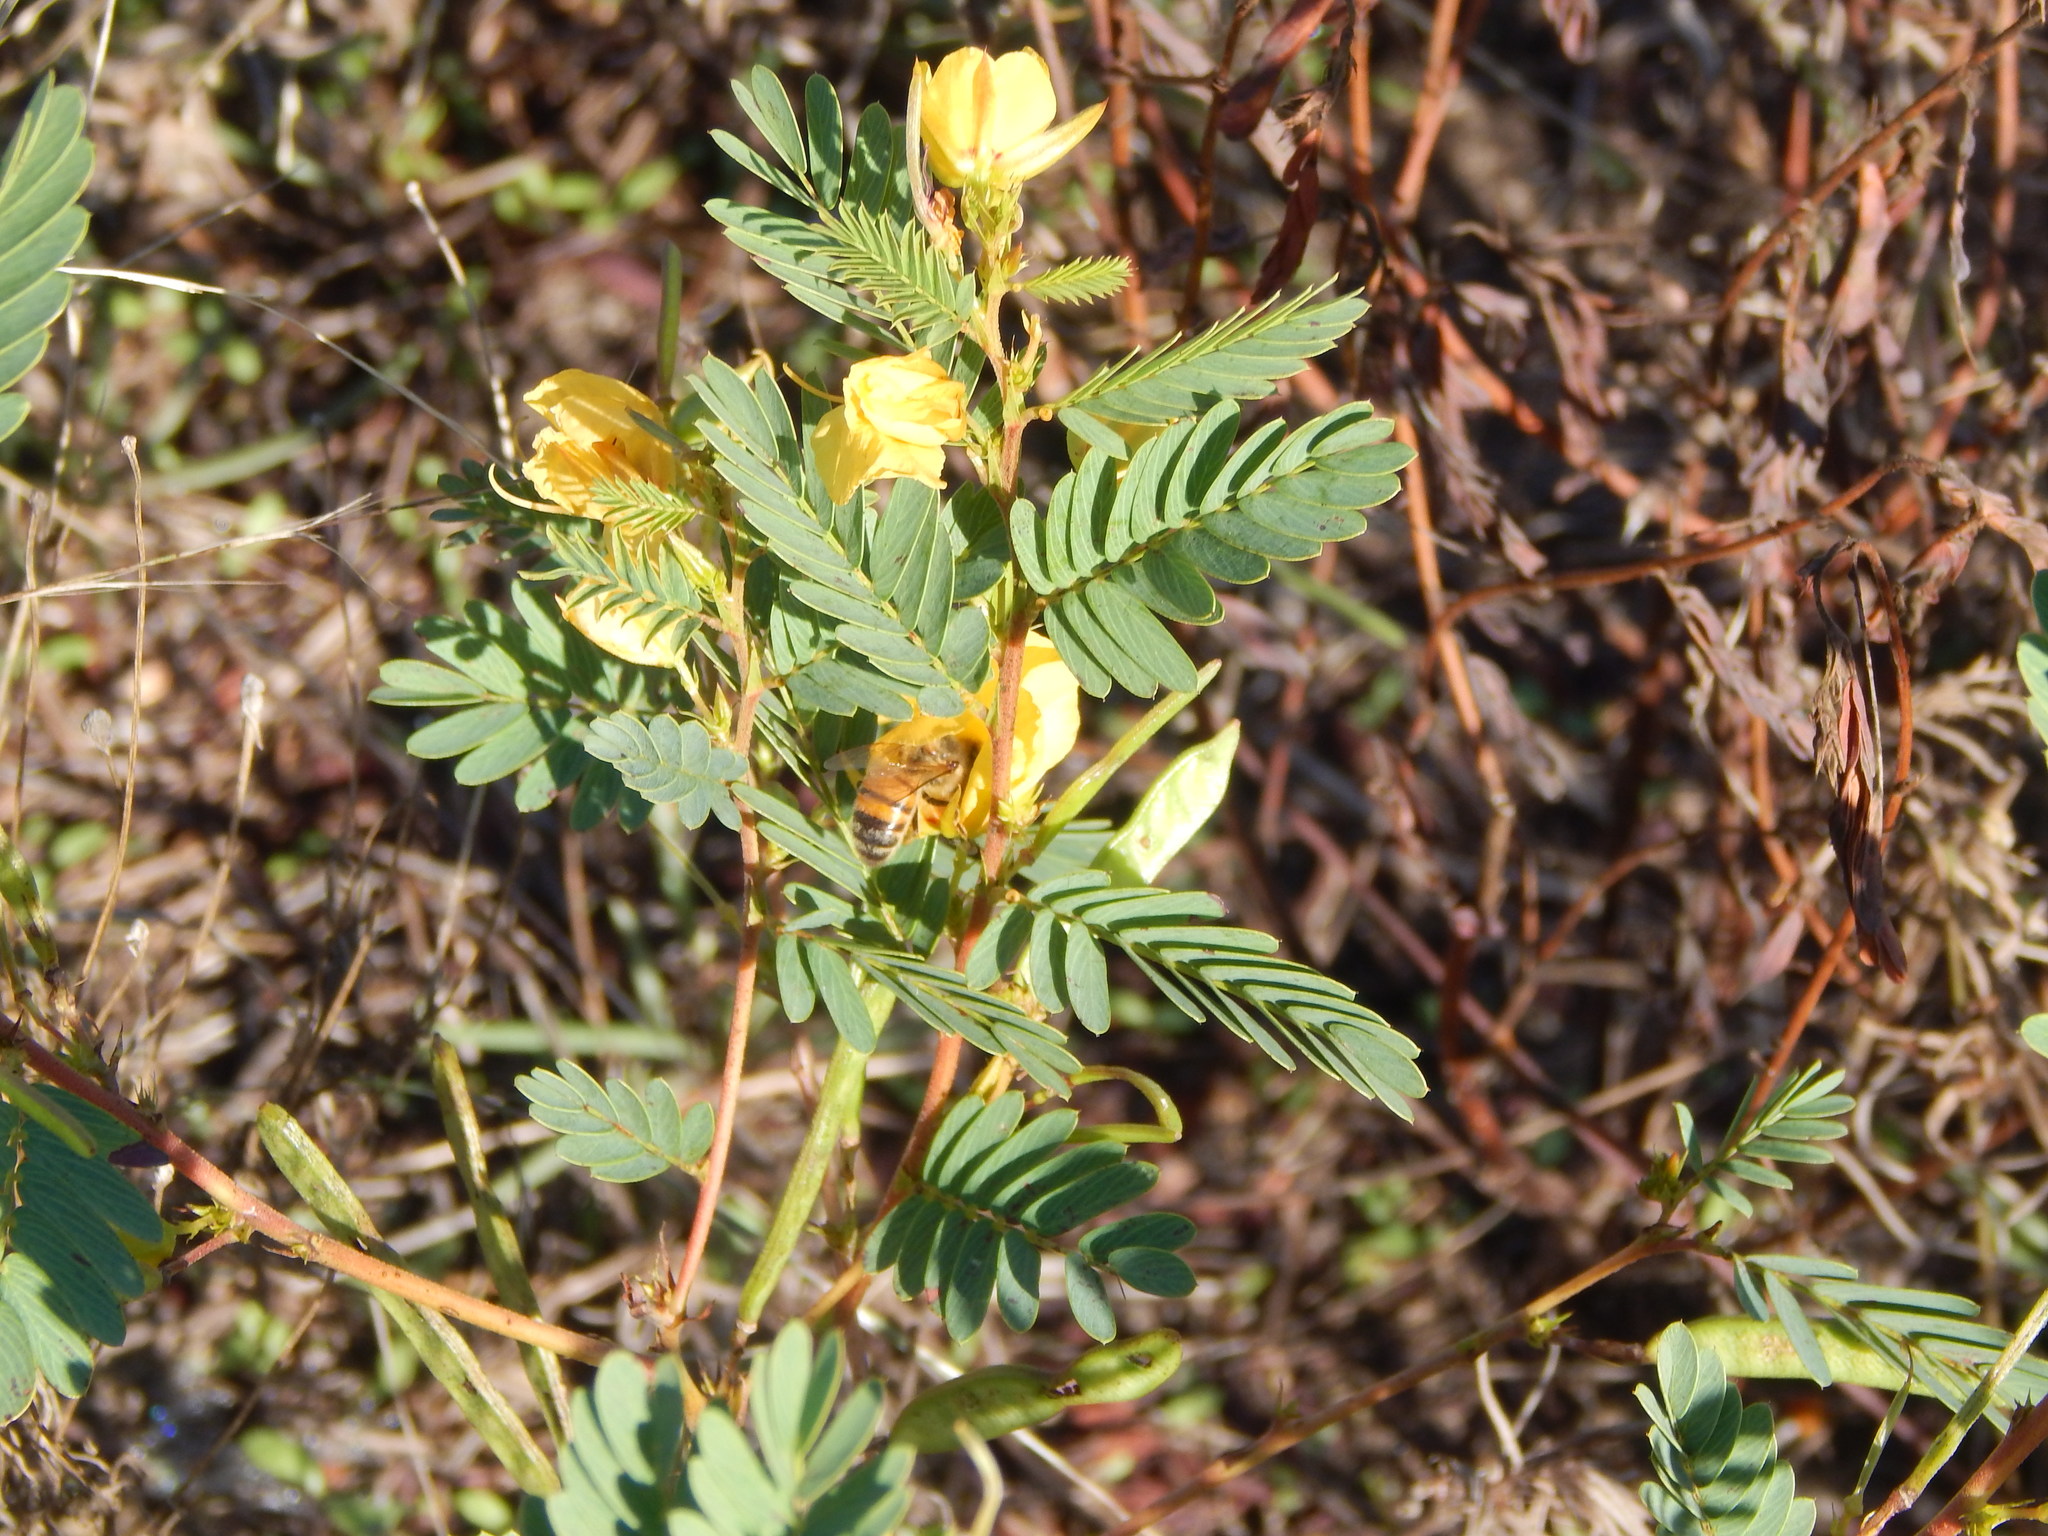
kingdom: Plantae
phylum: Tracheophyta
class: Magnoliopsida
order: Fabales
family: Fabaceae
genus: Chamaecrista
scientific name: Chamaecrista fasciculata
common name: Golden cassia
